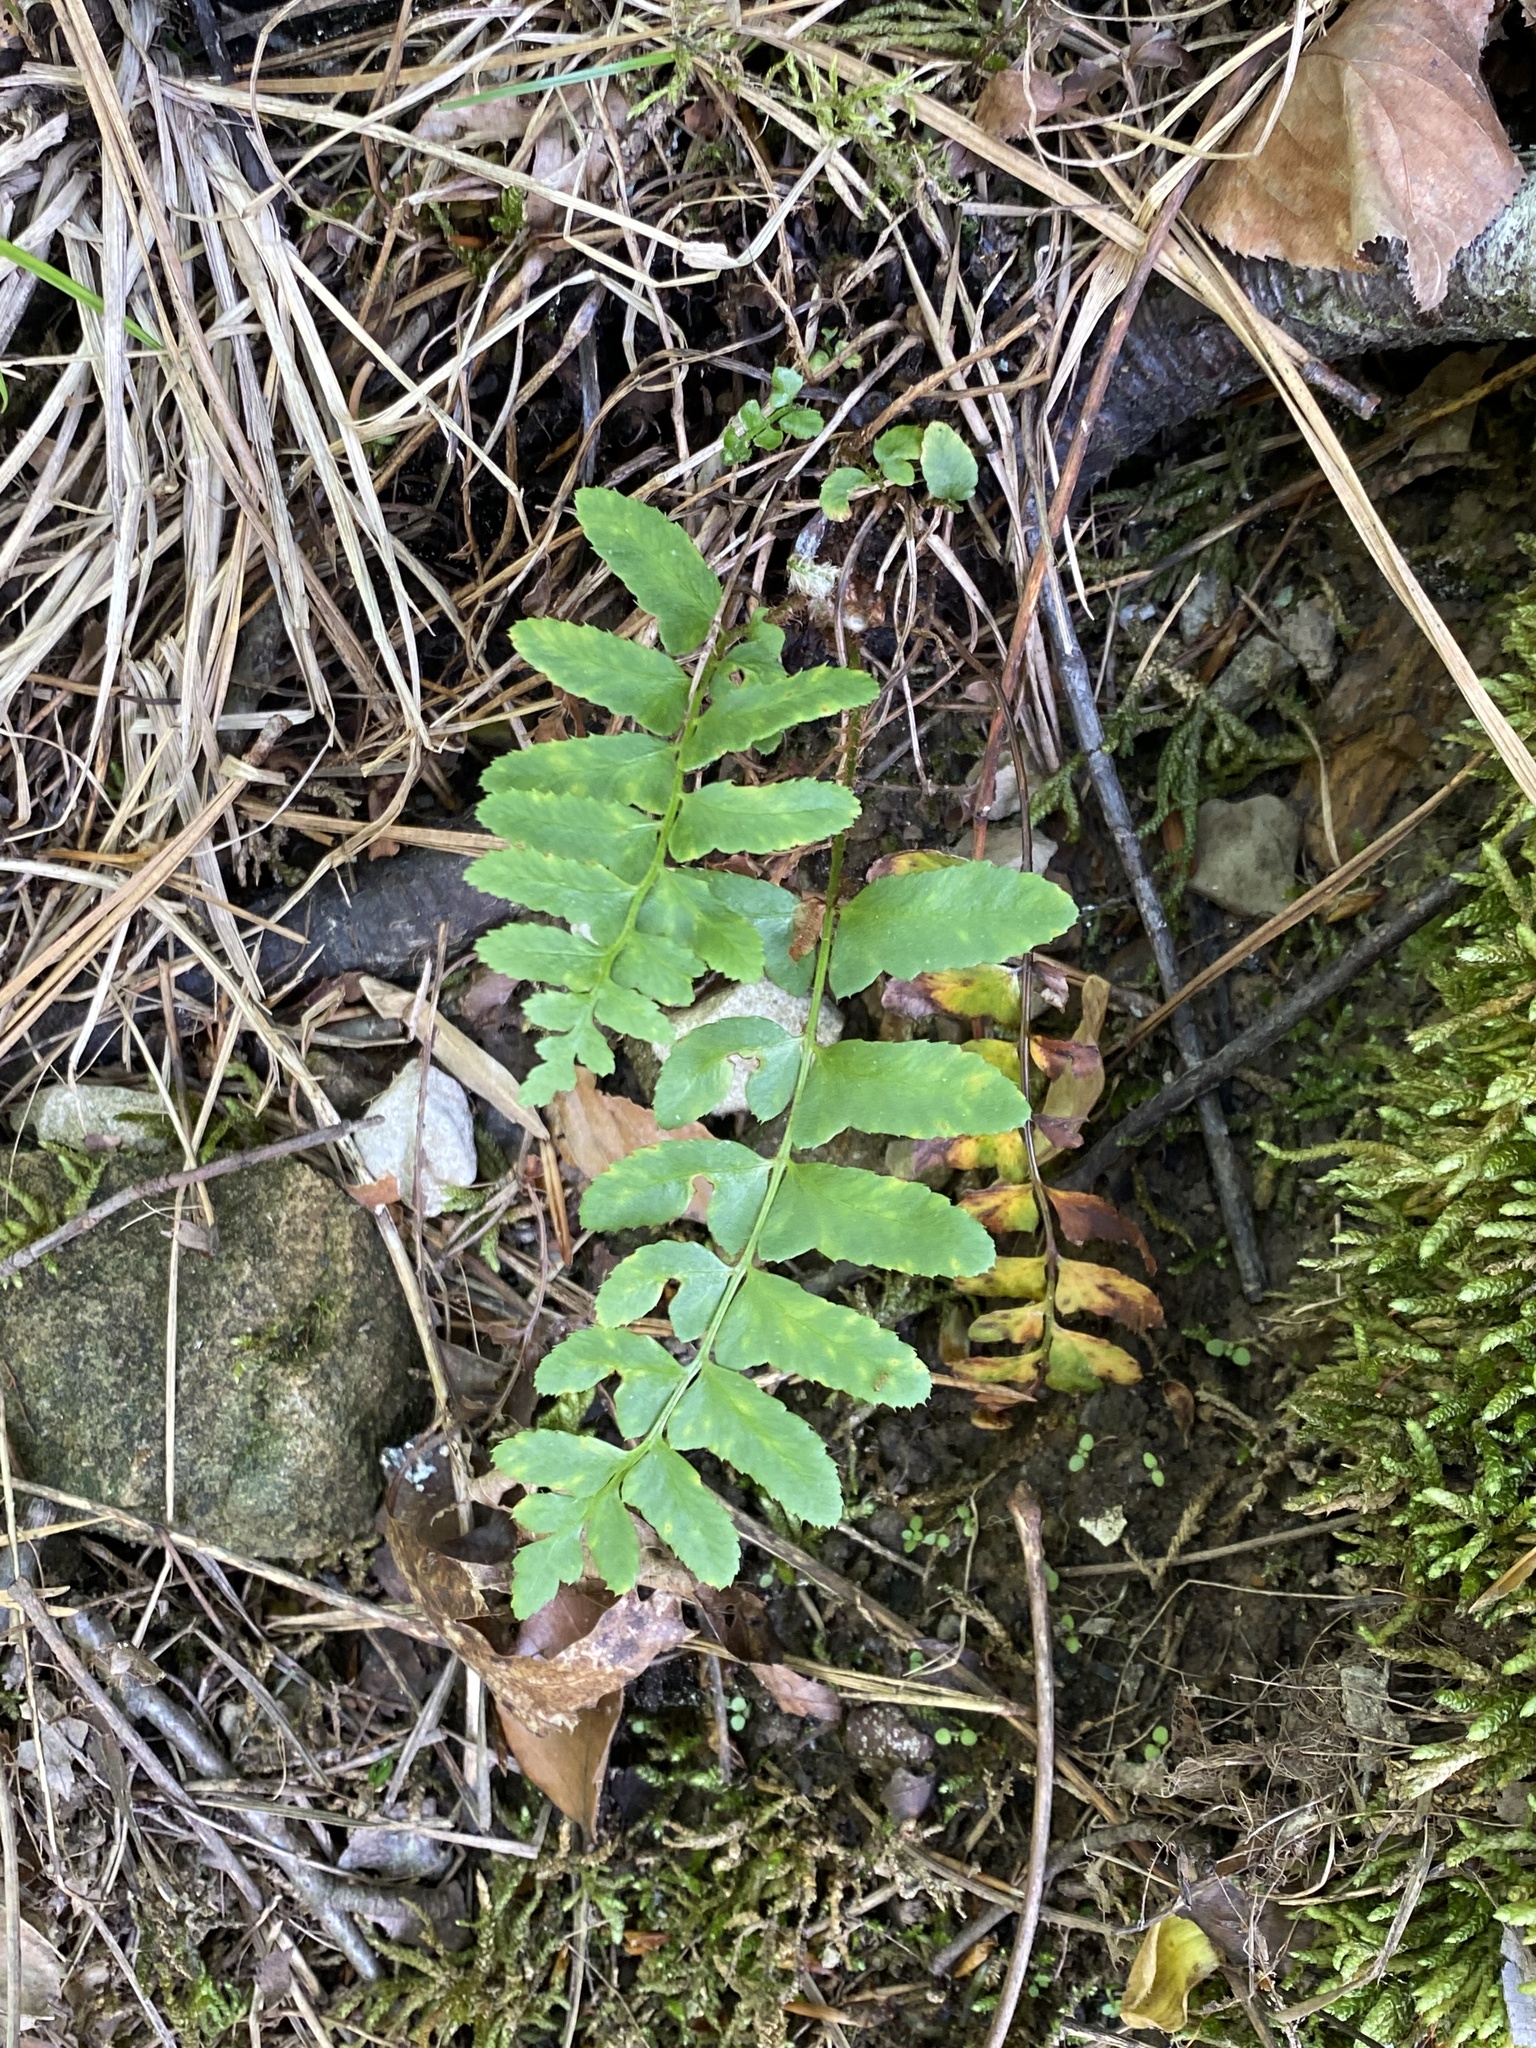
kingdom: Plantae
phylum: Tracheophyta
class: Polypodiopsida
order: Polypodiales
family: Dryopteridaceae
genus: Polystichum
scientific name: Polystichum acrostichoides
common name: Christmas fern
